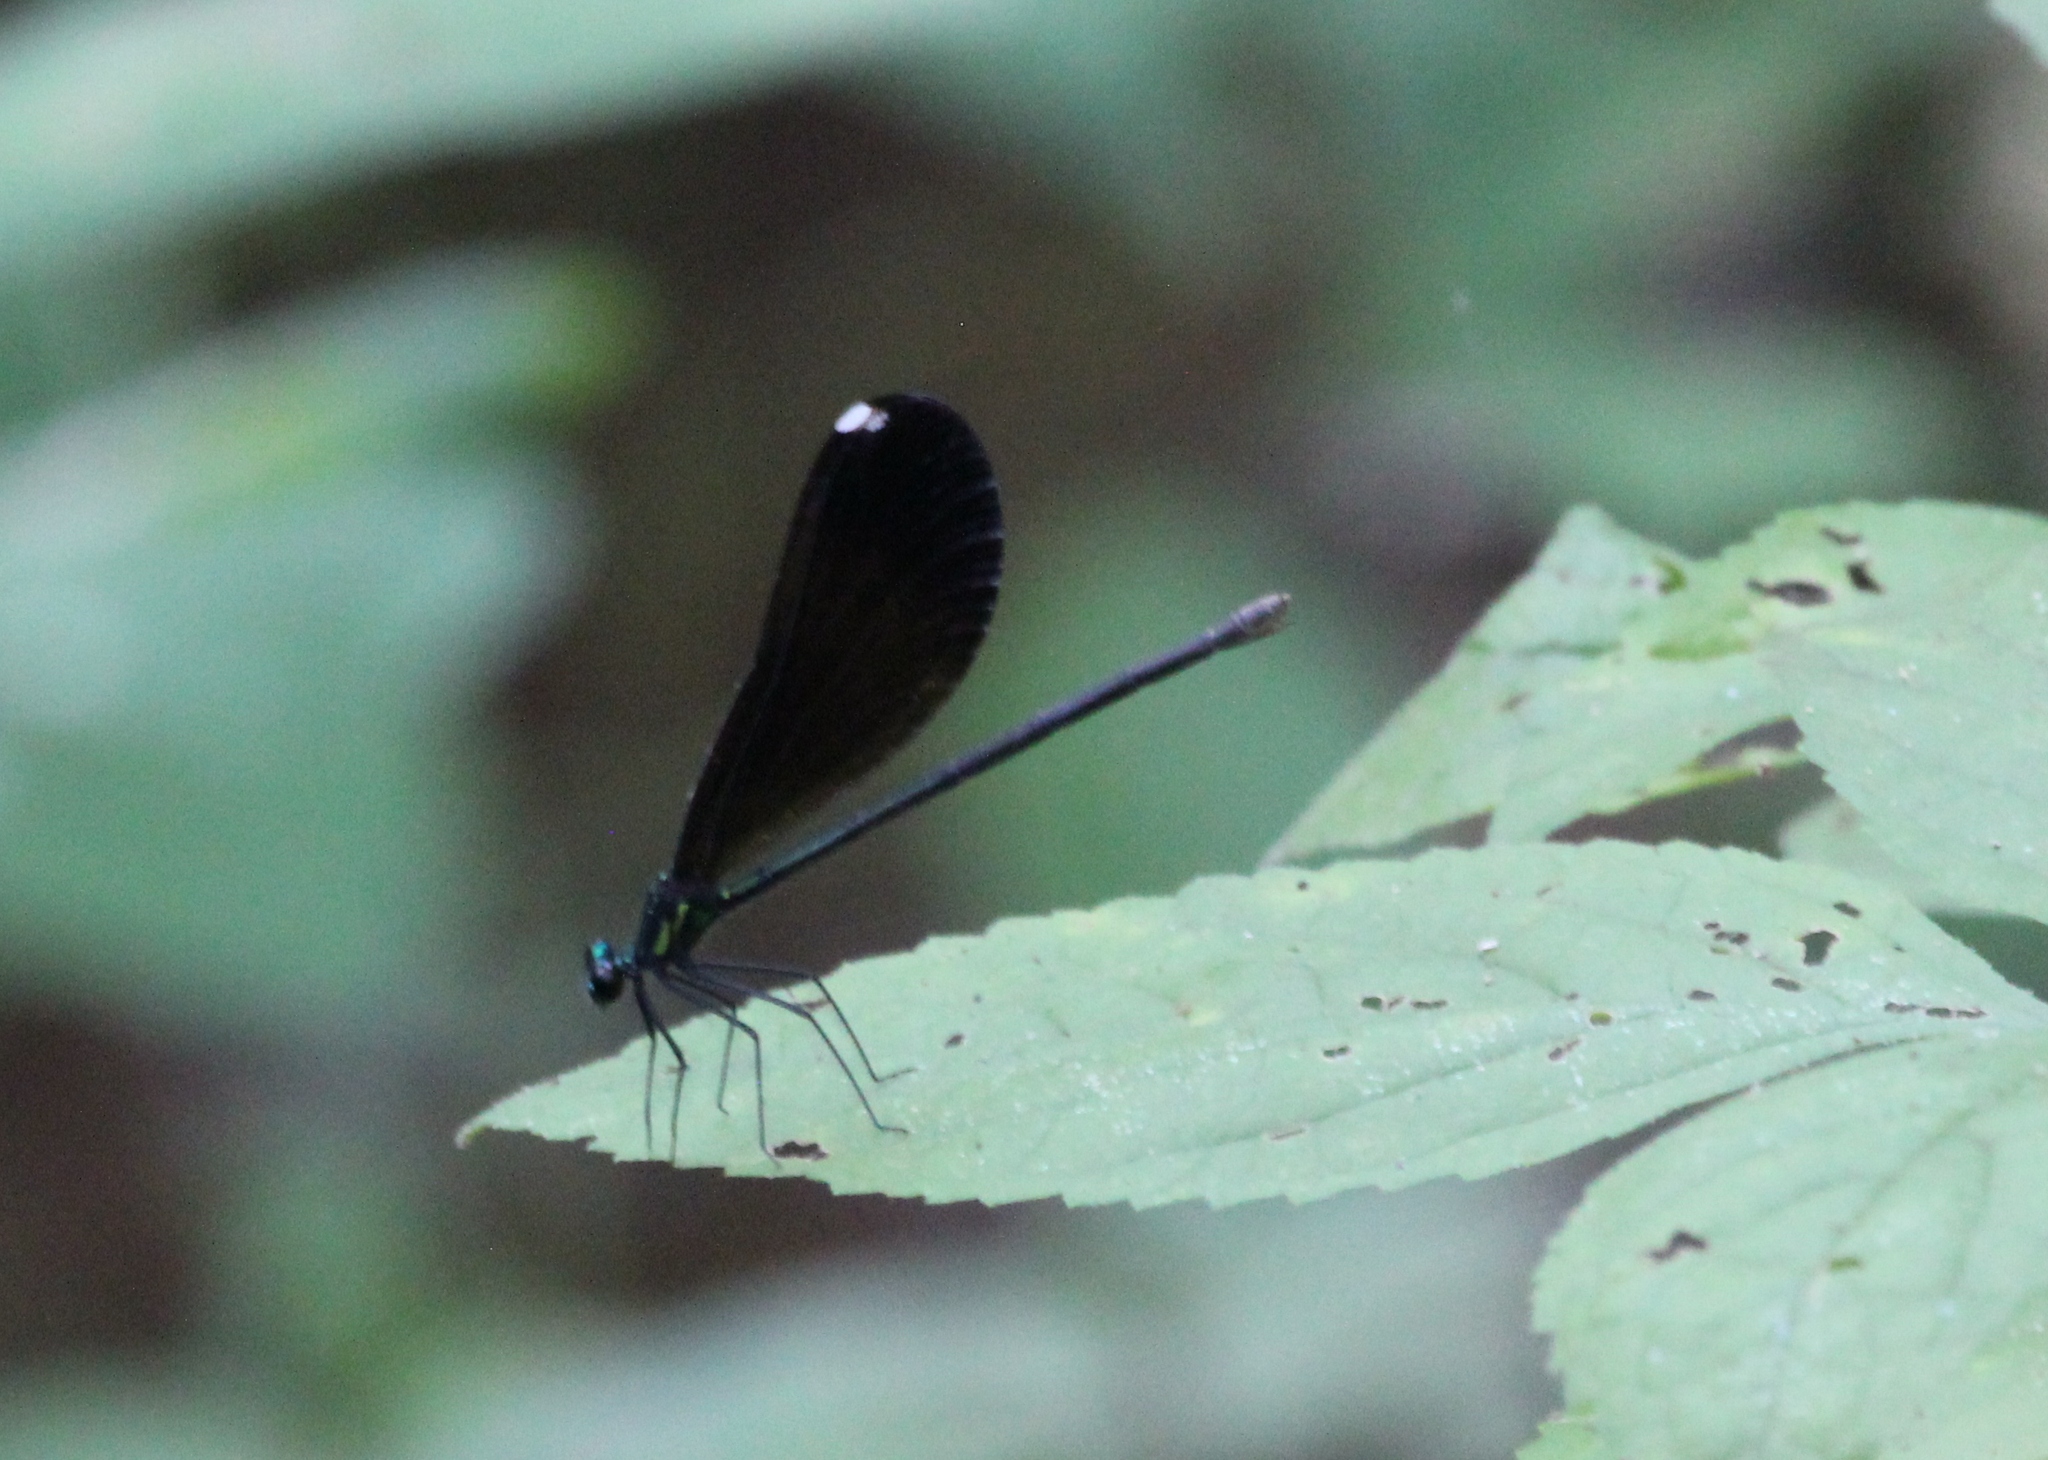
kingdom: Animalia
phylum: Arthropoda
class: Insecta
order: Odonata
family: Calopterygidae
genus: Calopteryx
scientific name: Calopteryx maculata
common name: Ebony jewelwing
